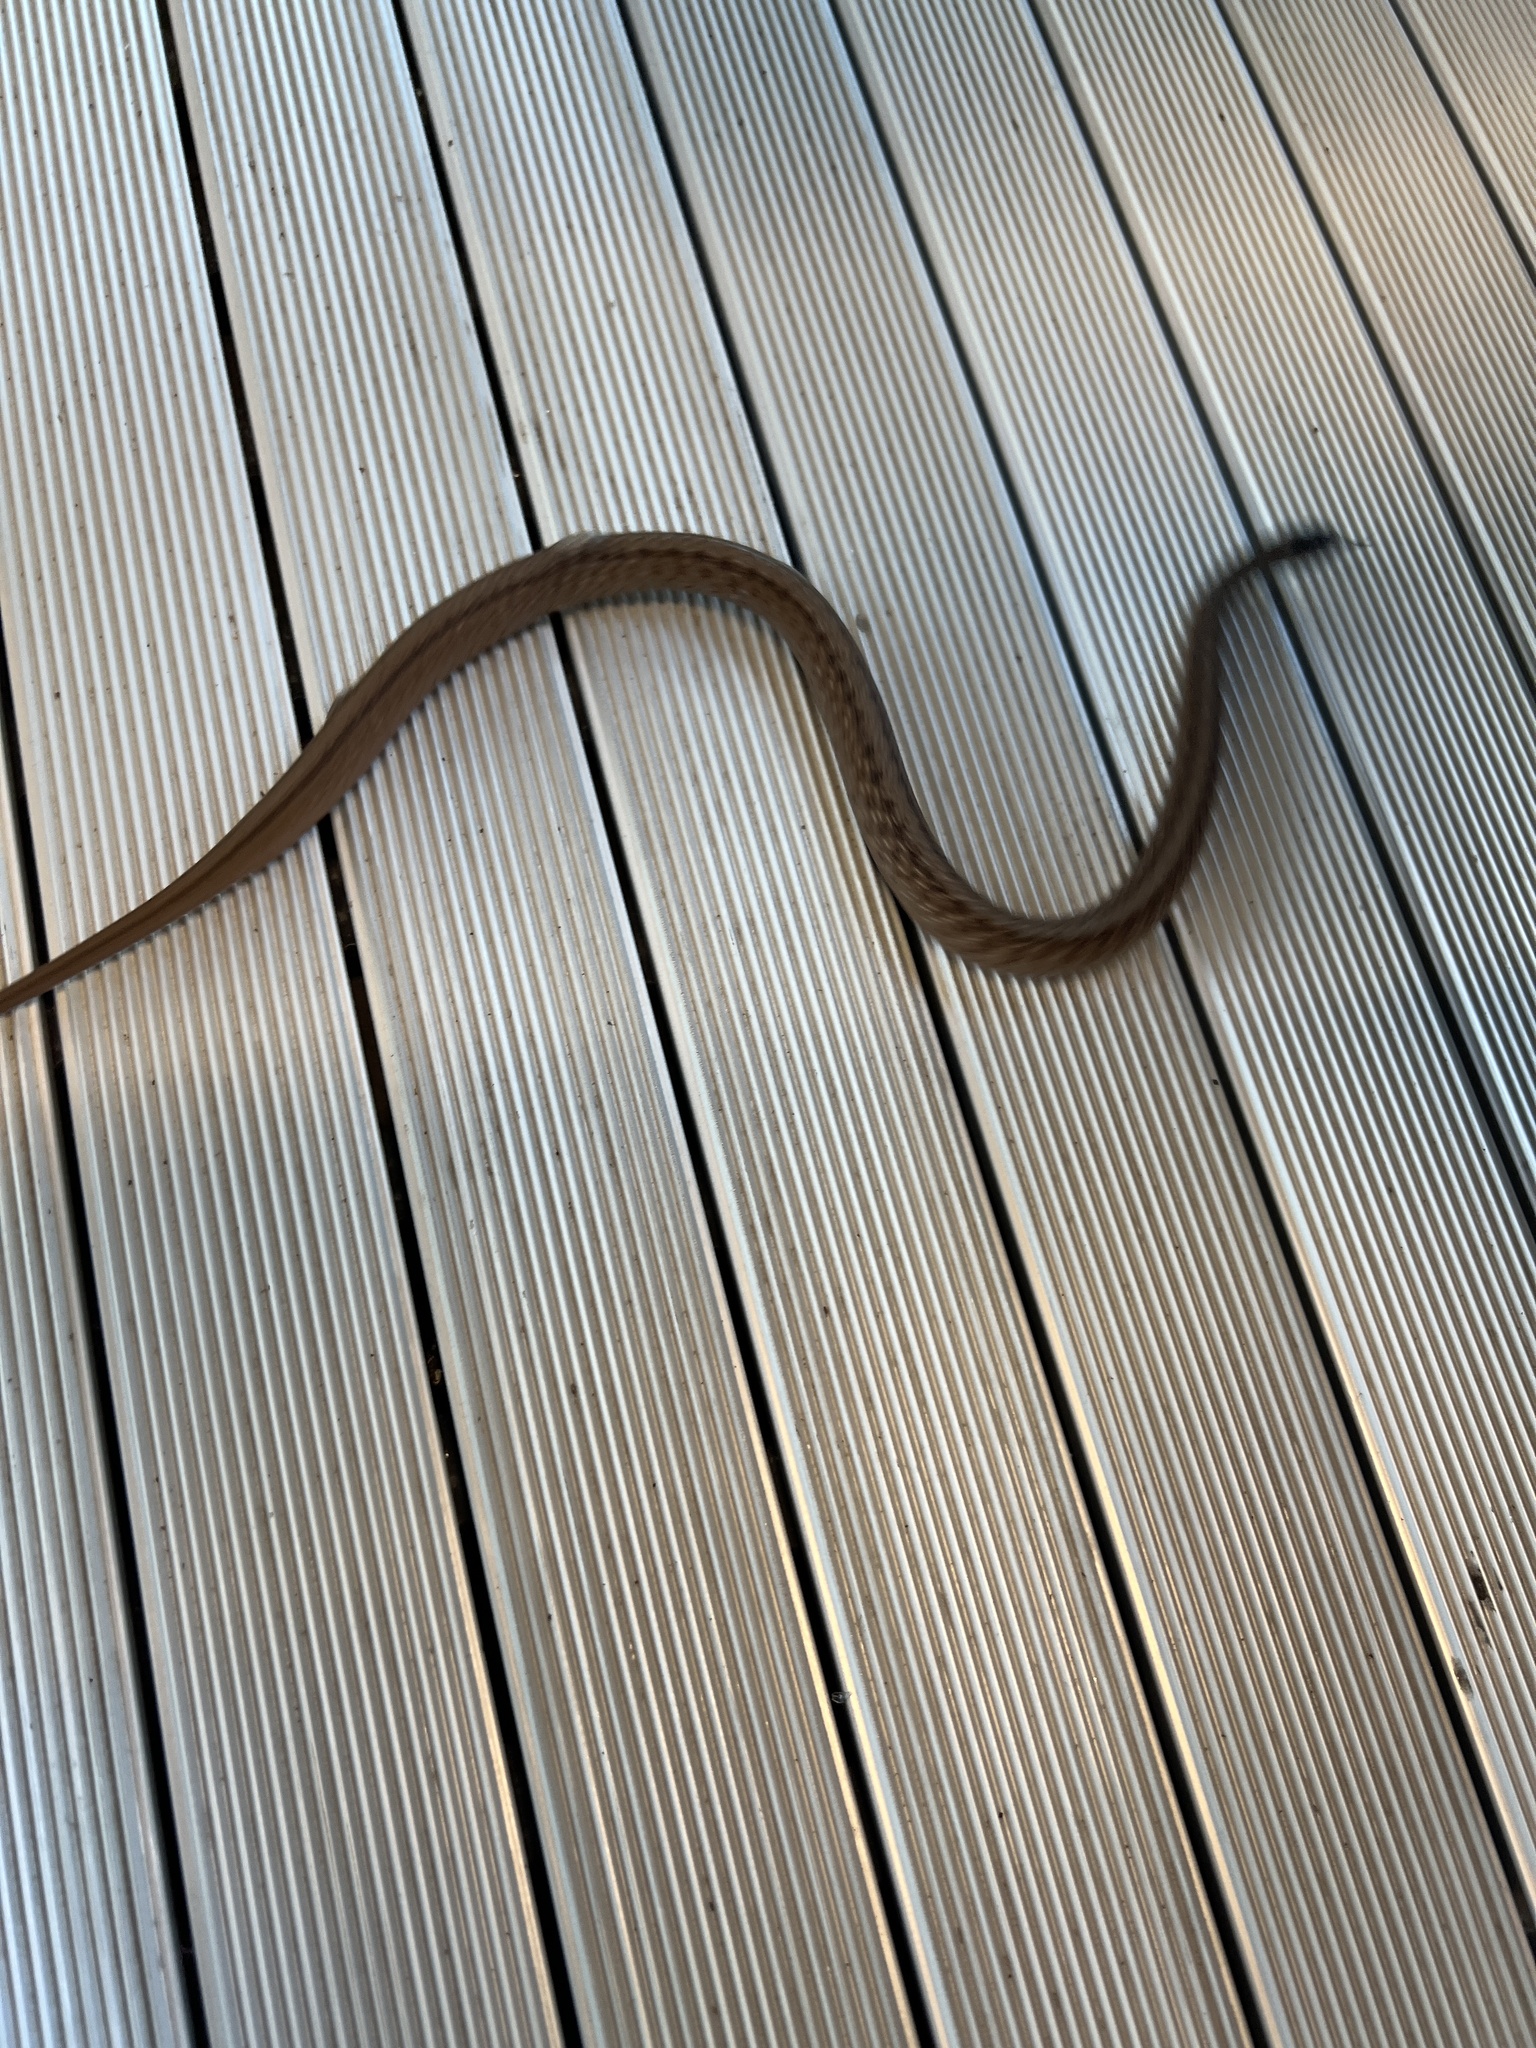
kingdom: Animalia
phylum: Chordata
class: Squamata
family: Colubridae
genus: Storeria
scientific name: Storeria dekayi
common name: (dekay’s) brown snake
